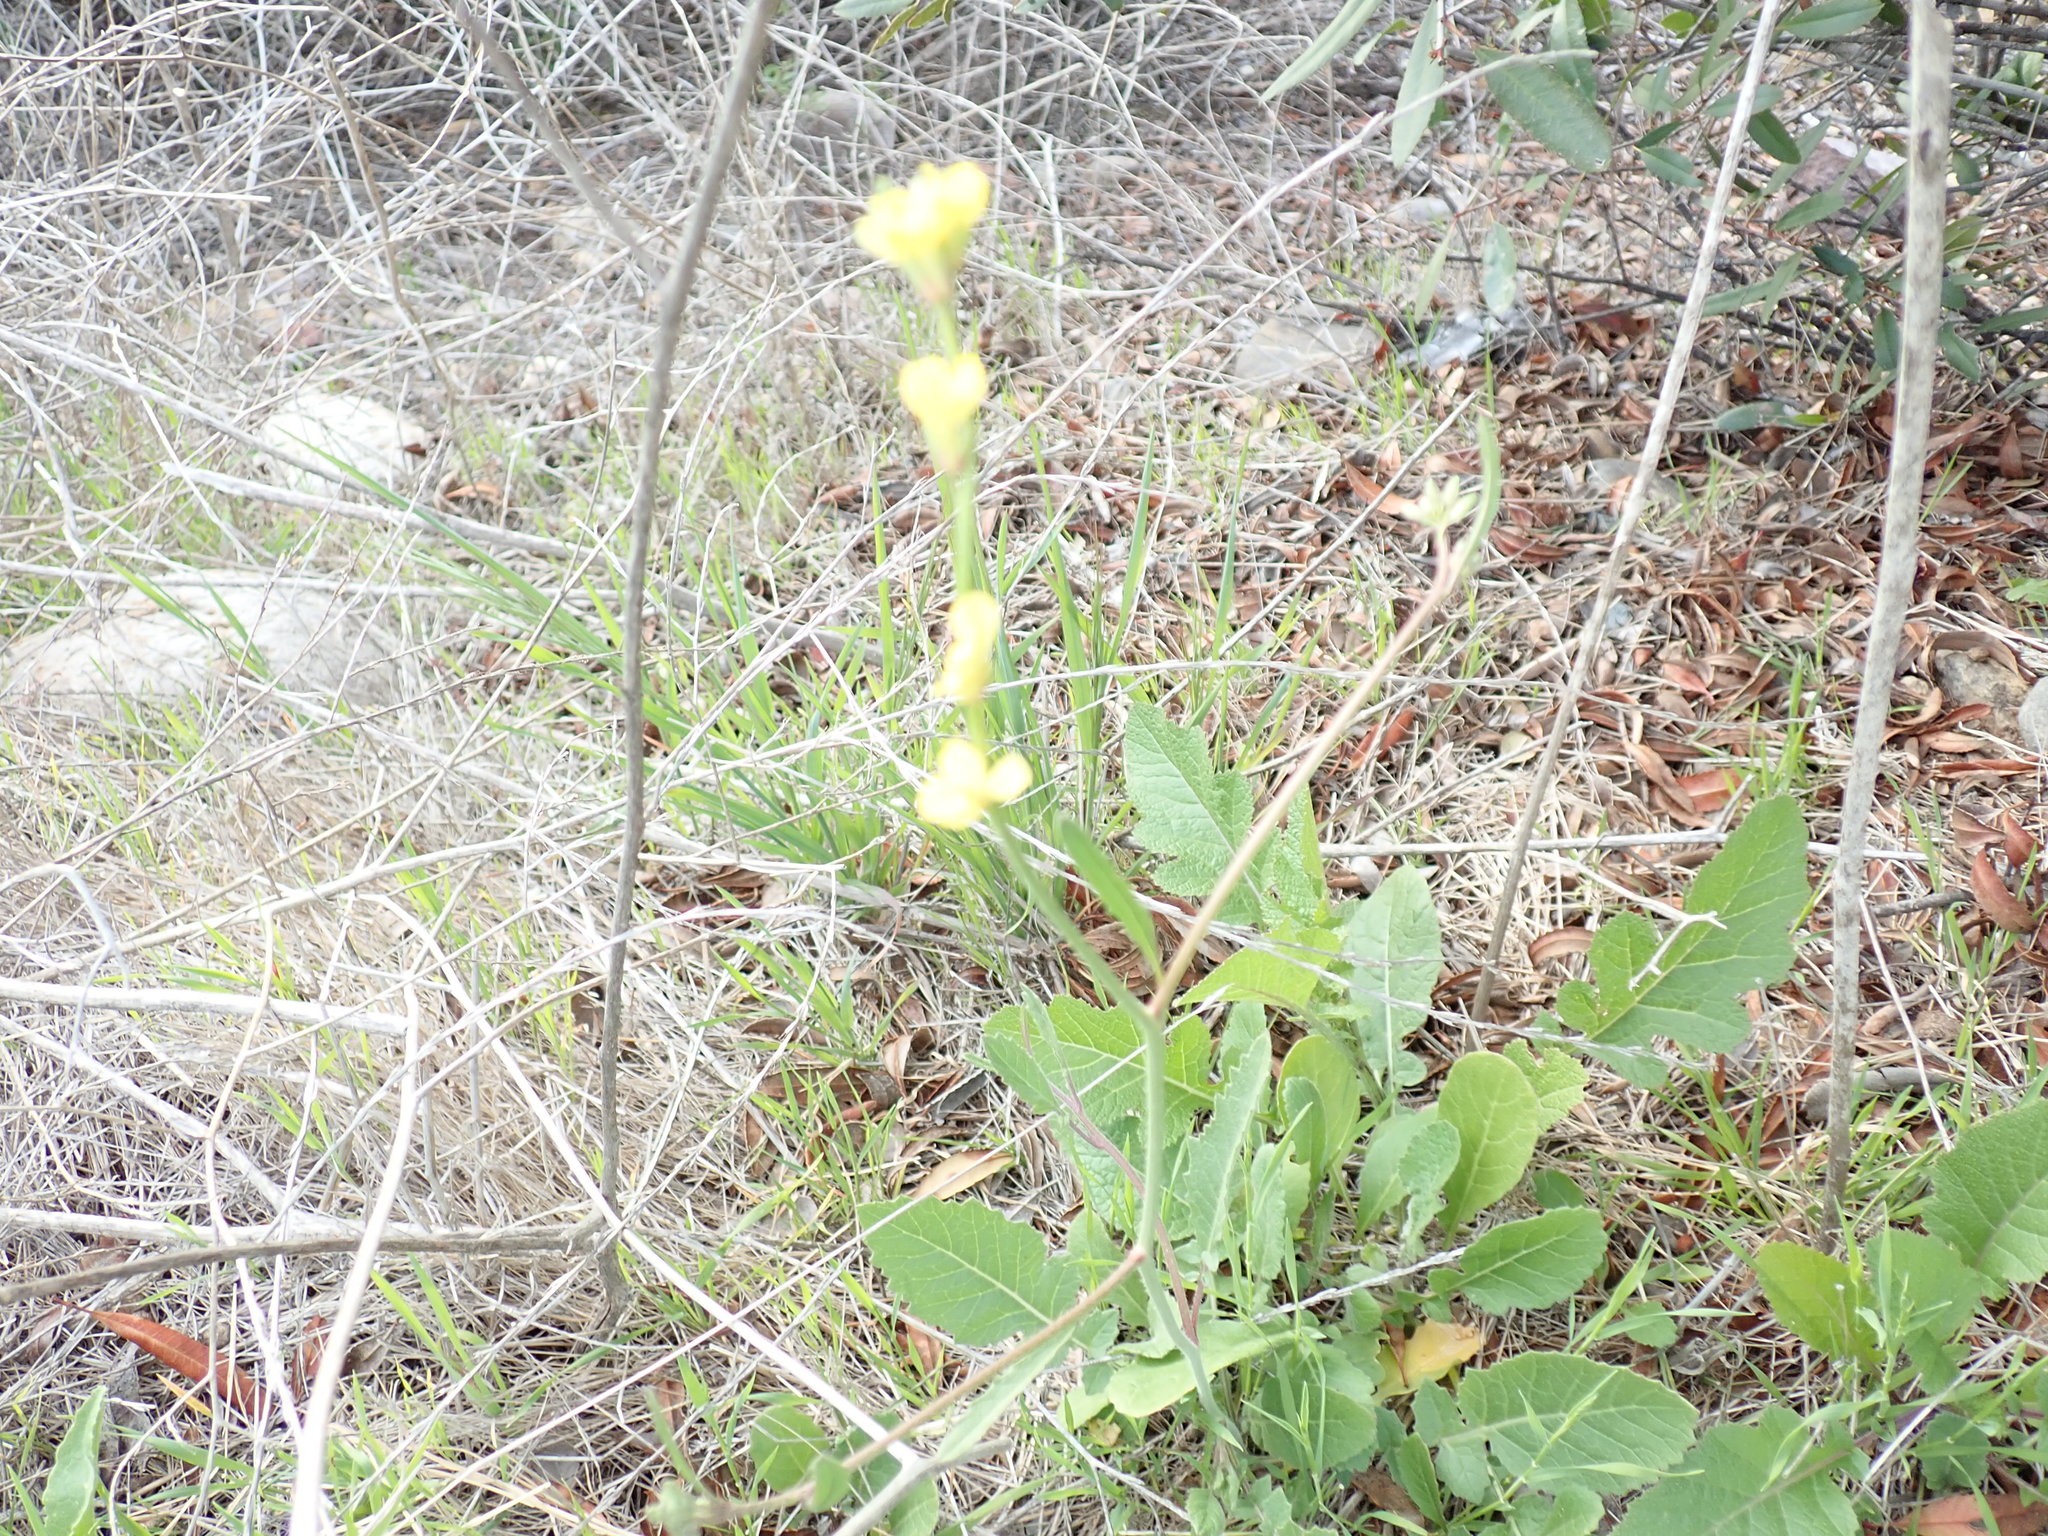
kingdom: Plantae
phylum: Tracheophyta
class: Magnoliopsida
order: Brassicales
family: Brassicaceae
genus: Hirschfeldia
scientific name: Hirschfeldia incana
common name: Hoary mustard
